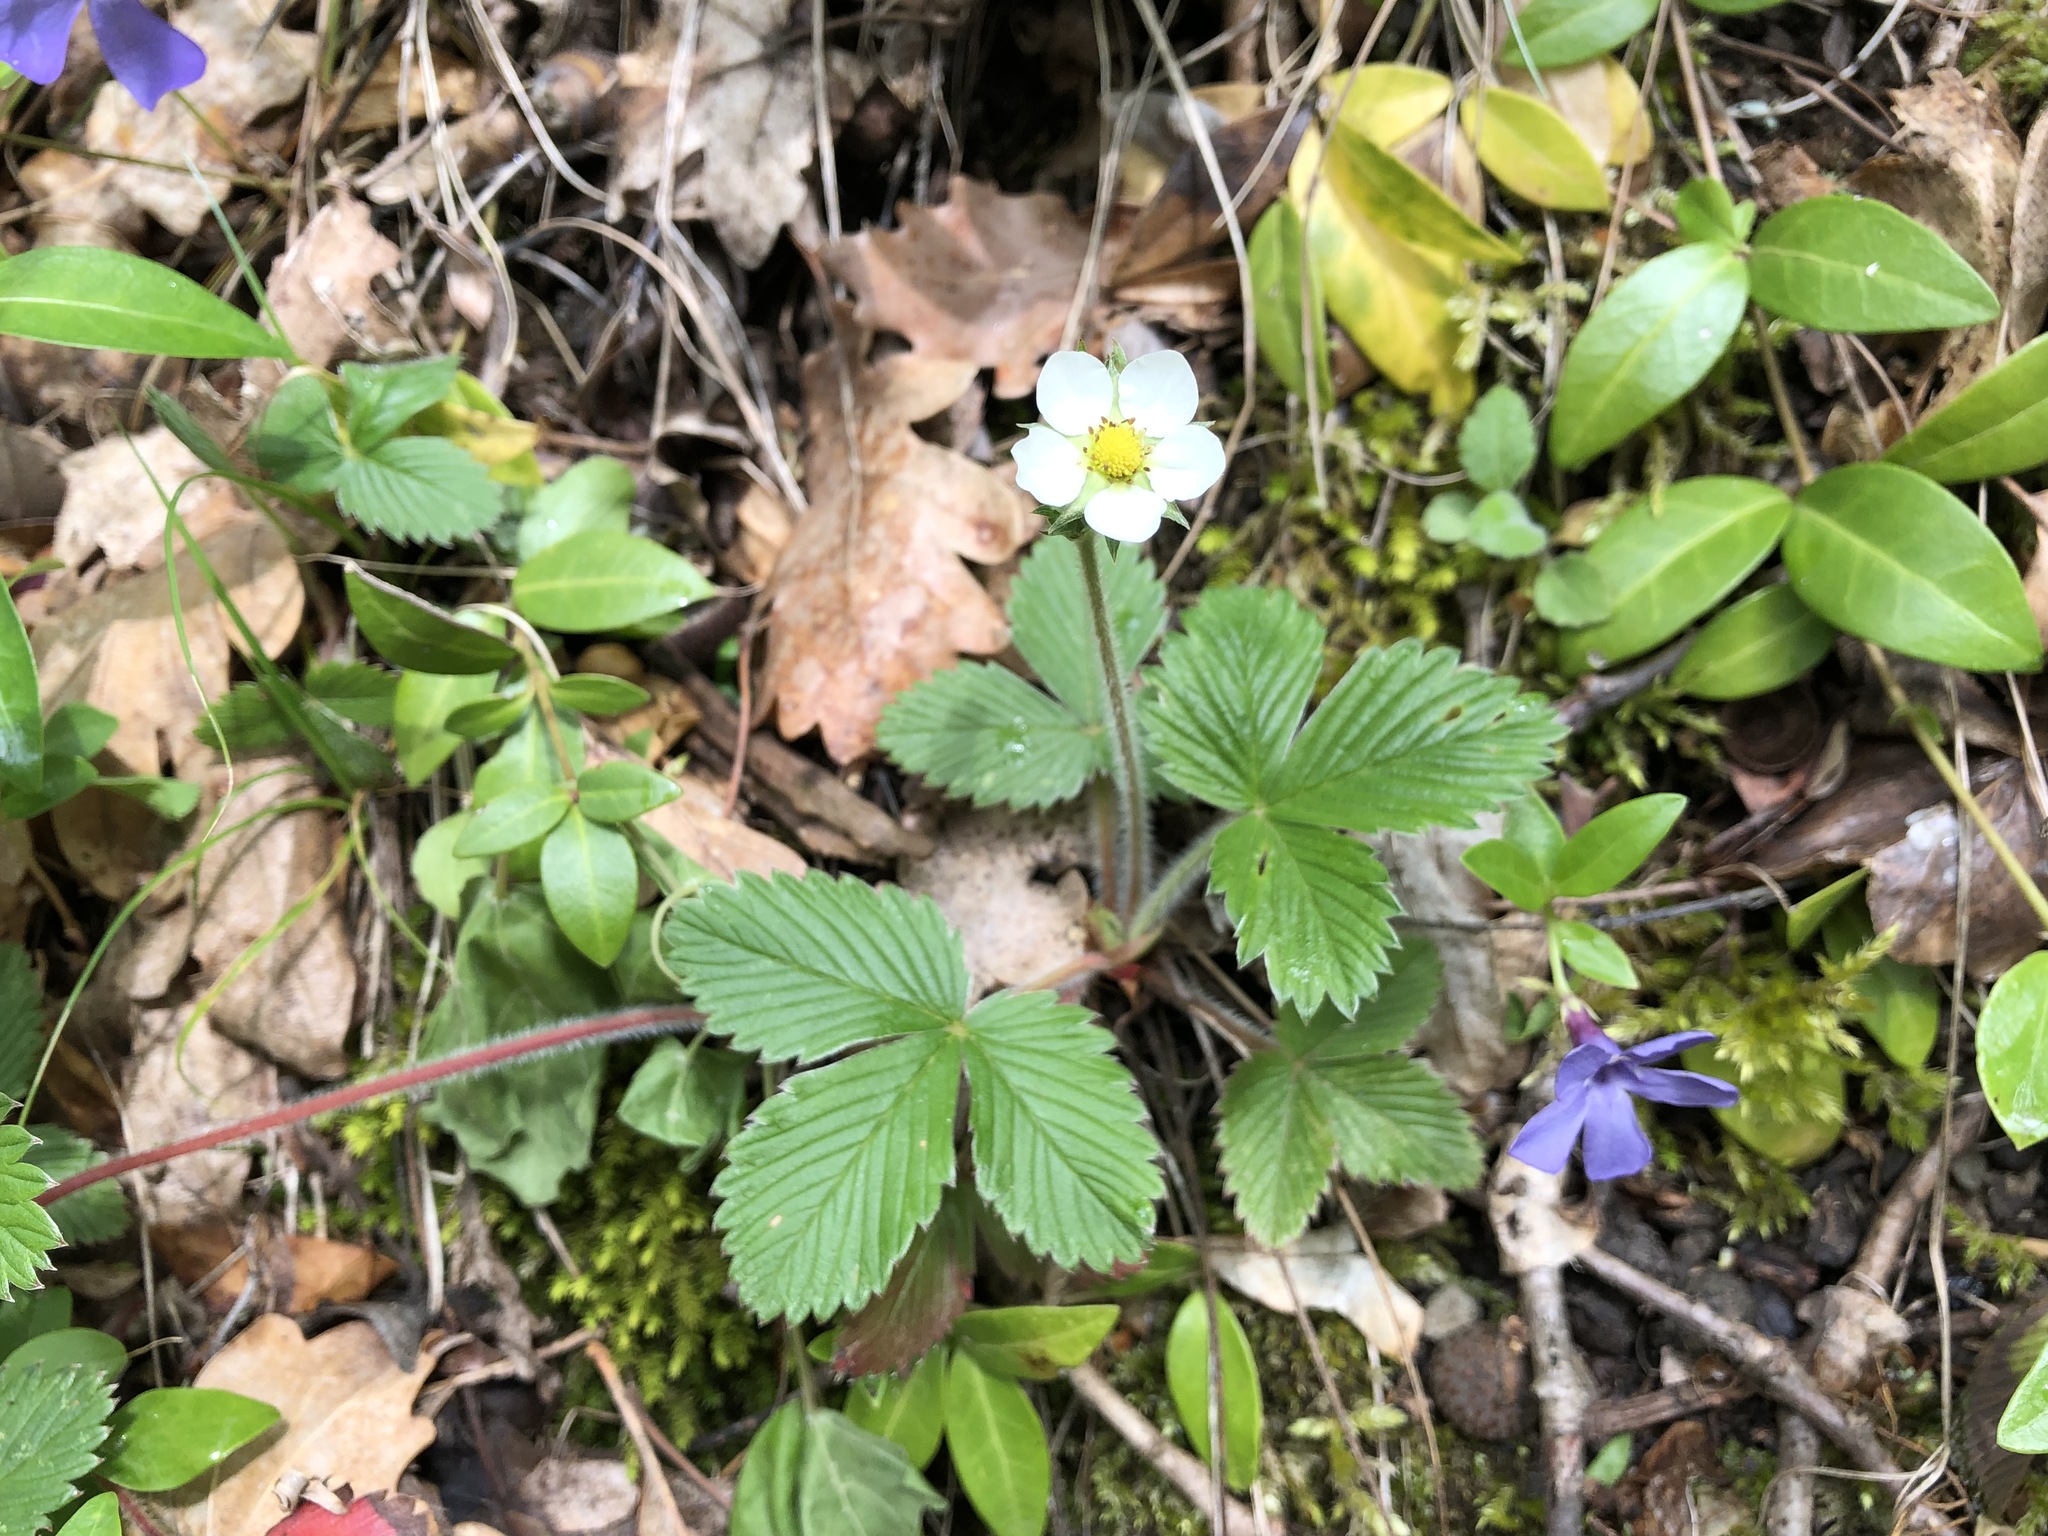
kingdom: Plantae
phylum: Tracheophyta
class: Magnoliopsida
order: Rosales
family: Rosaceae
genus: Fragaria
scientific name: Fragaria vesca
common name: Wild strawberry
